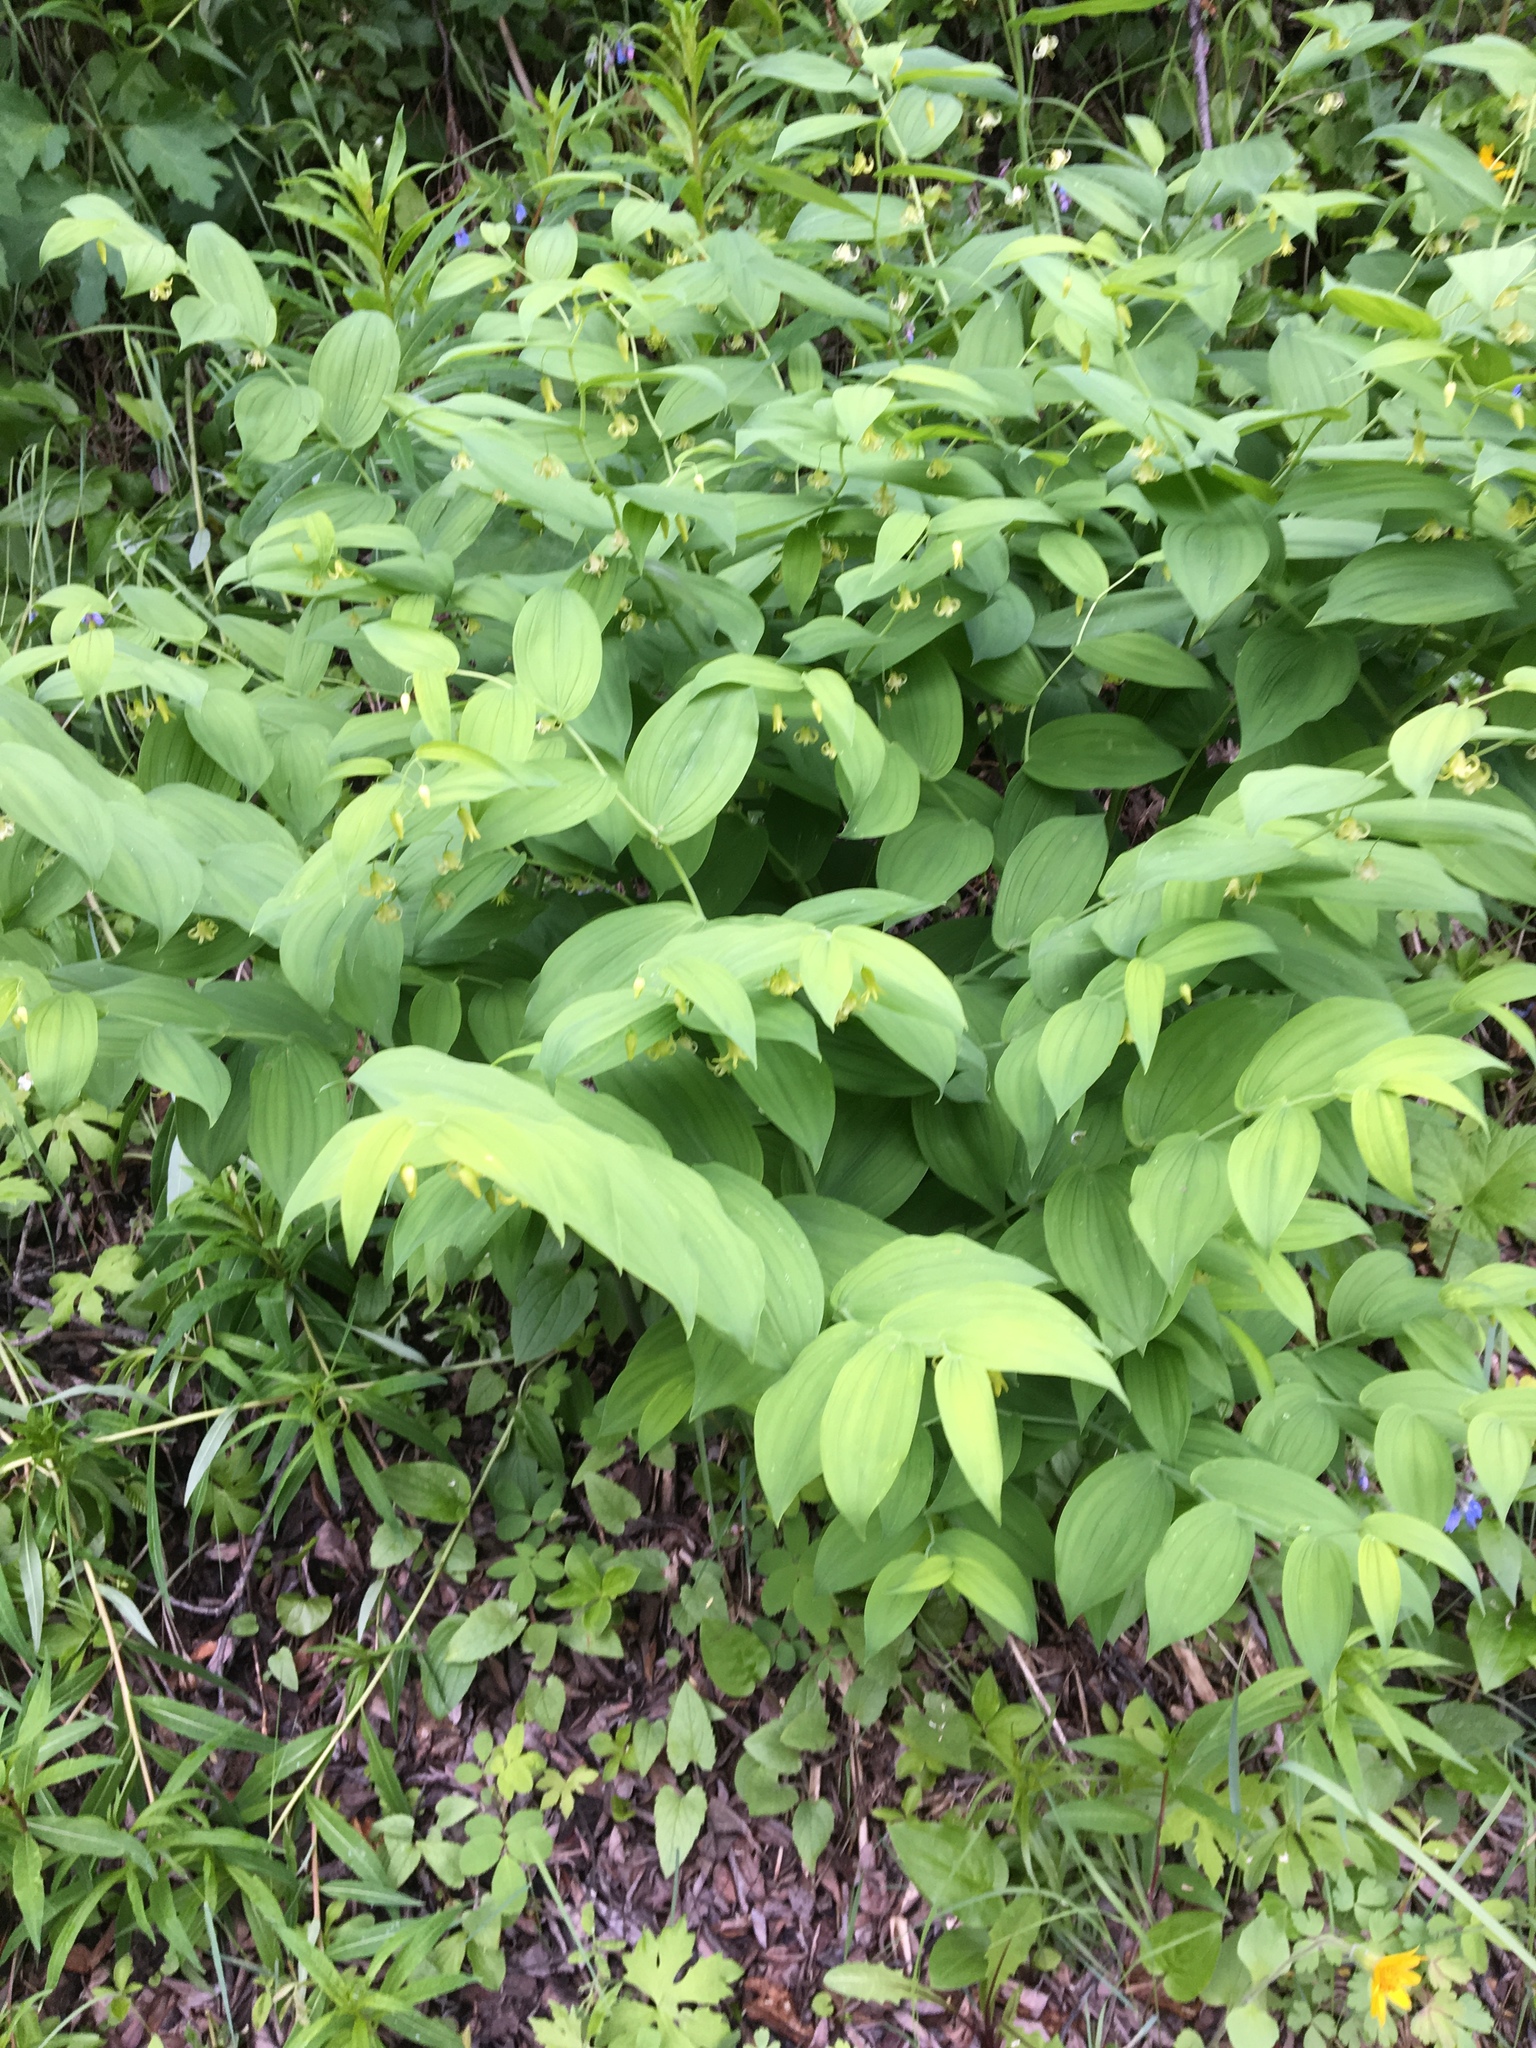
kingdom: Plantae
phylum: Tracheophyta
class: Liliopsida
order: Liliales
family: Liliaceae
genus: Streptopus
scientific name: Streptopus amplexifolius
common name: Clasp twisted stalk
